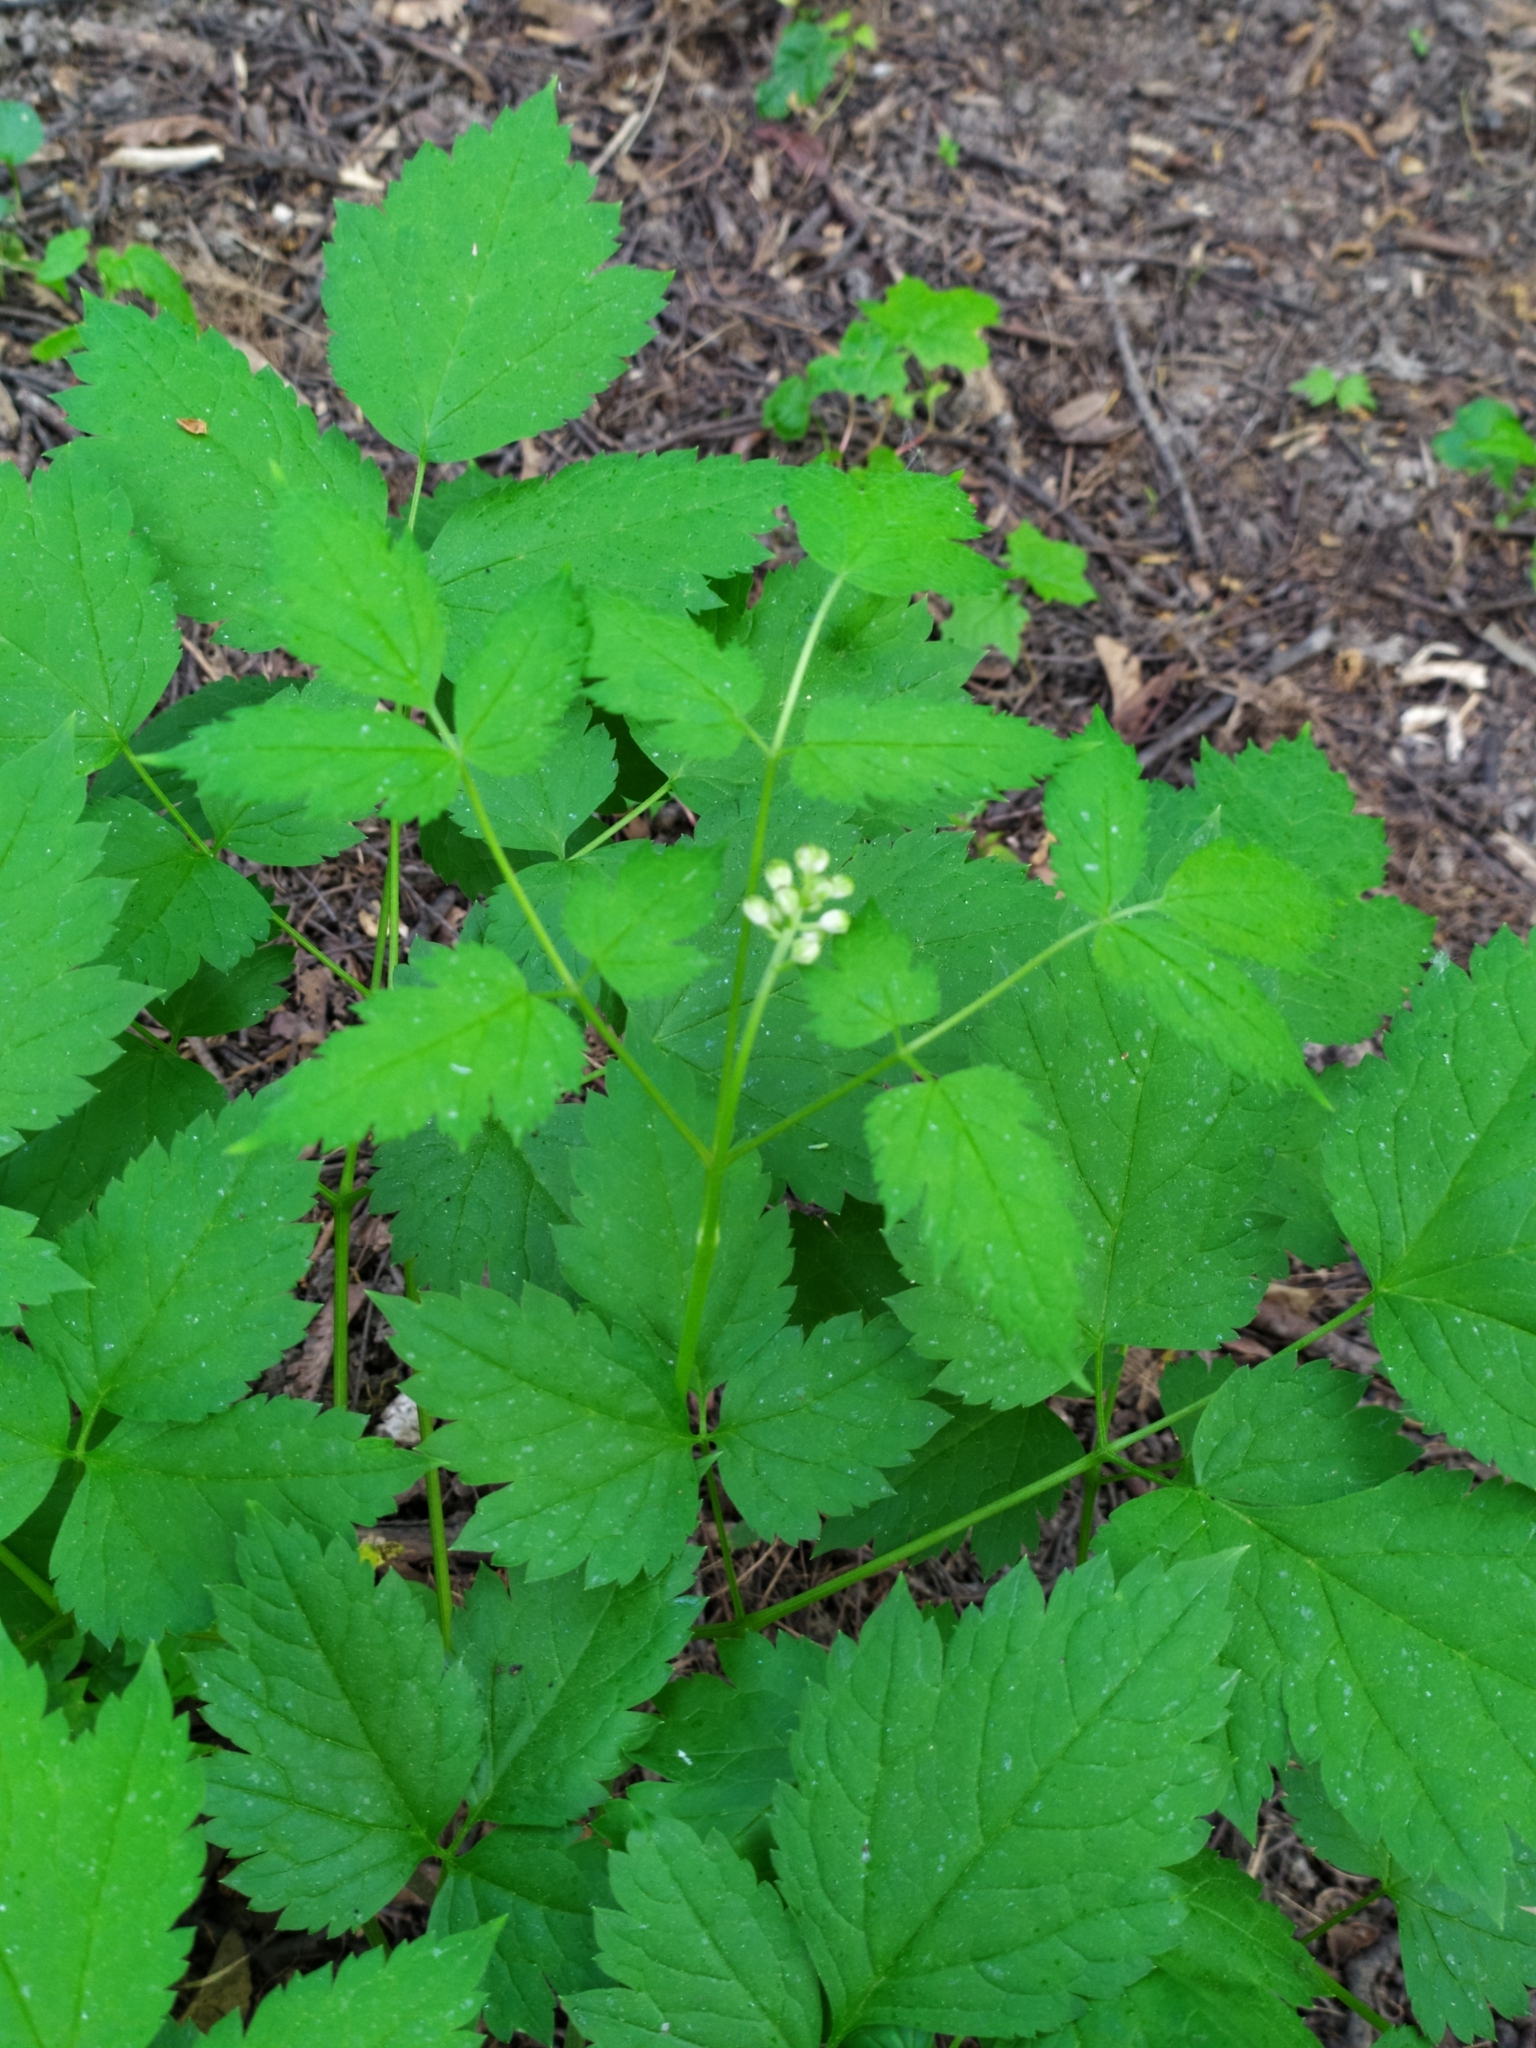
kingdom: Plantae
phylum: Tracheophyta
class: Magnoliopsida
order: Ranunculales
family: Ranunculaceae
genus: Actaea
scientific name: Actaea spicata
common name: Baneberry
